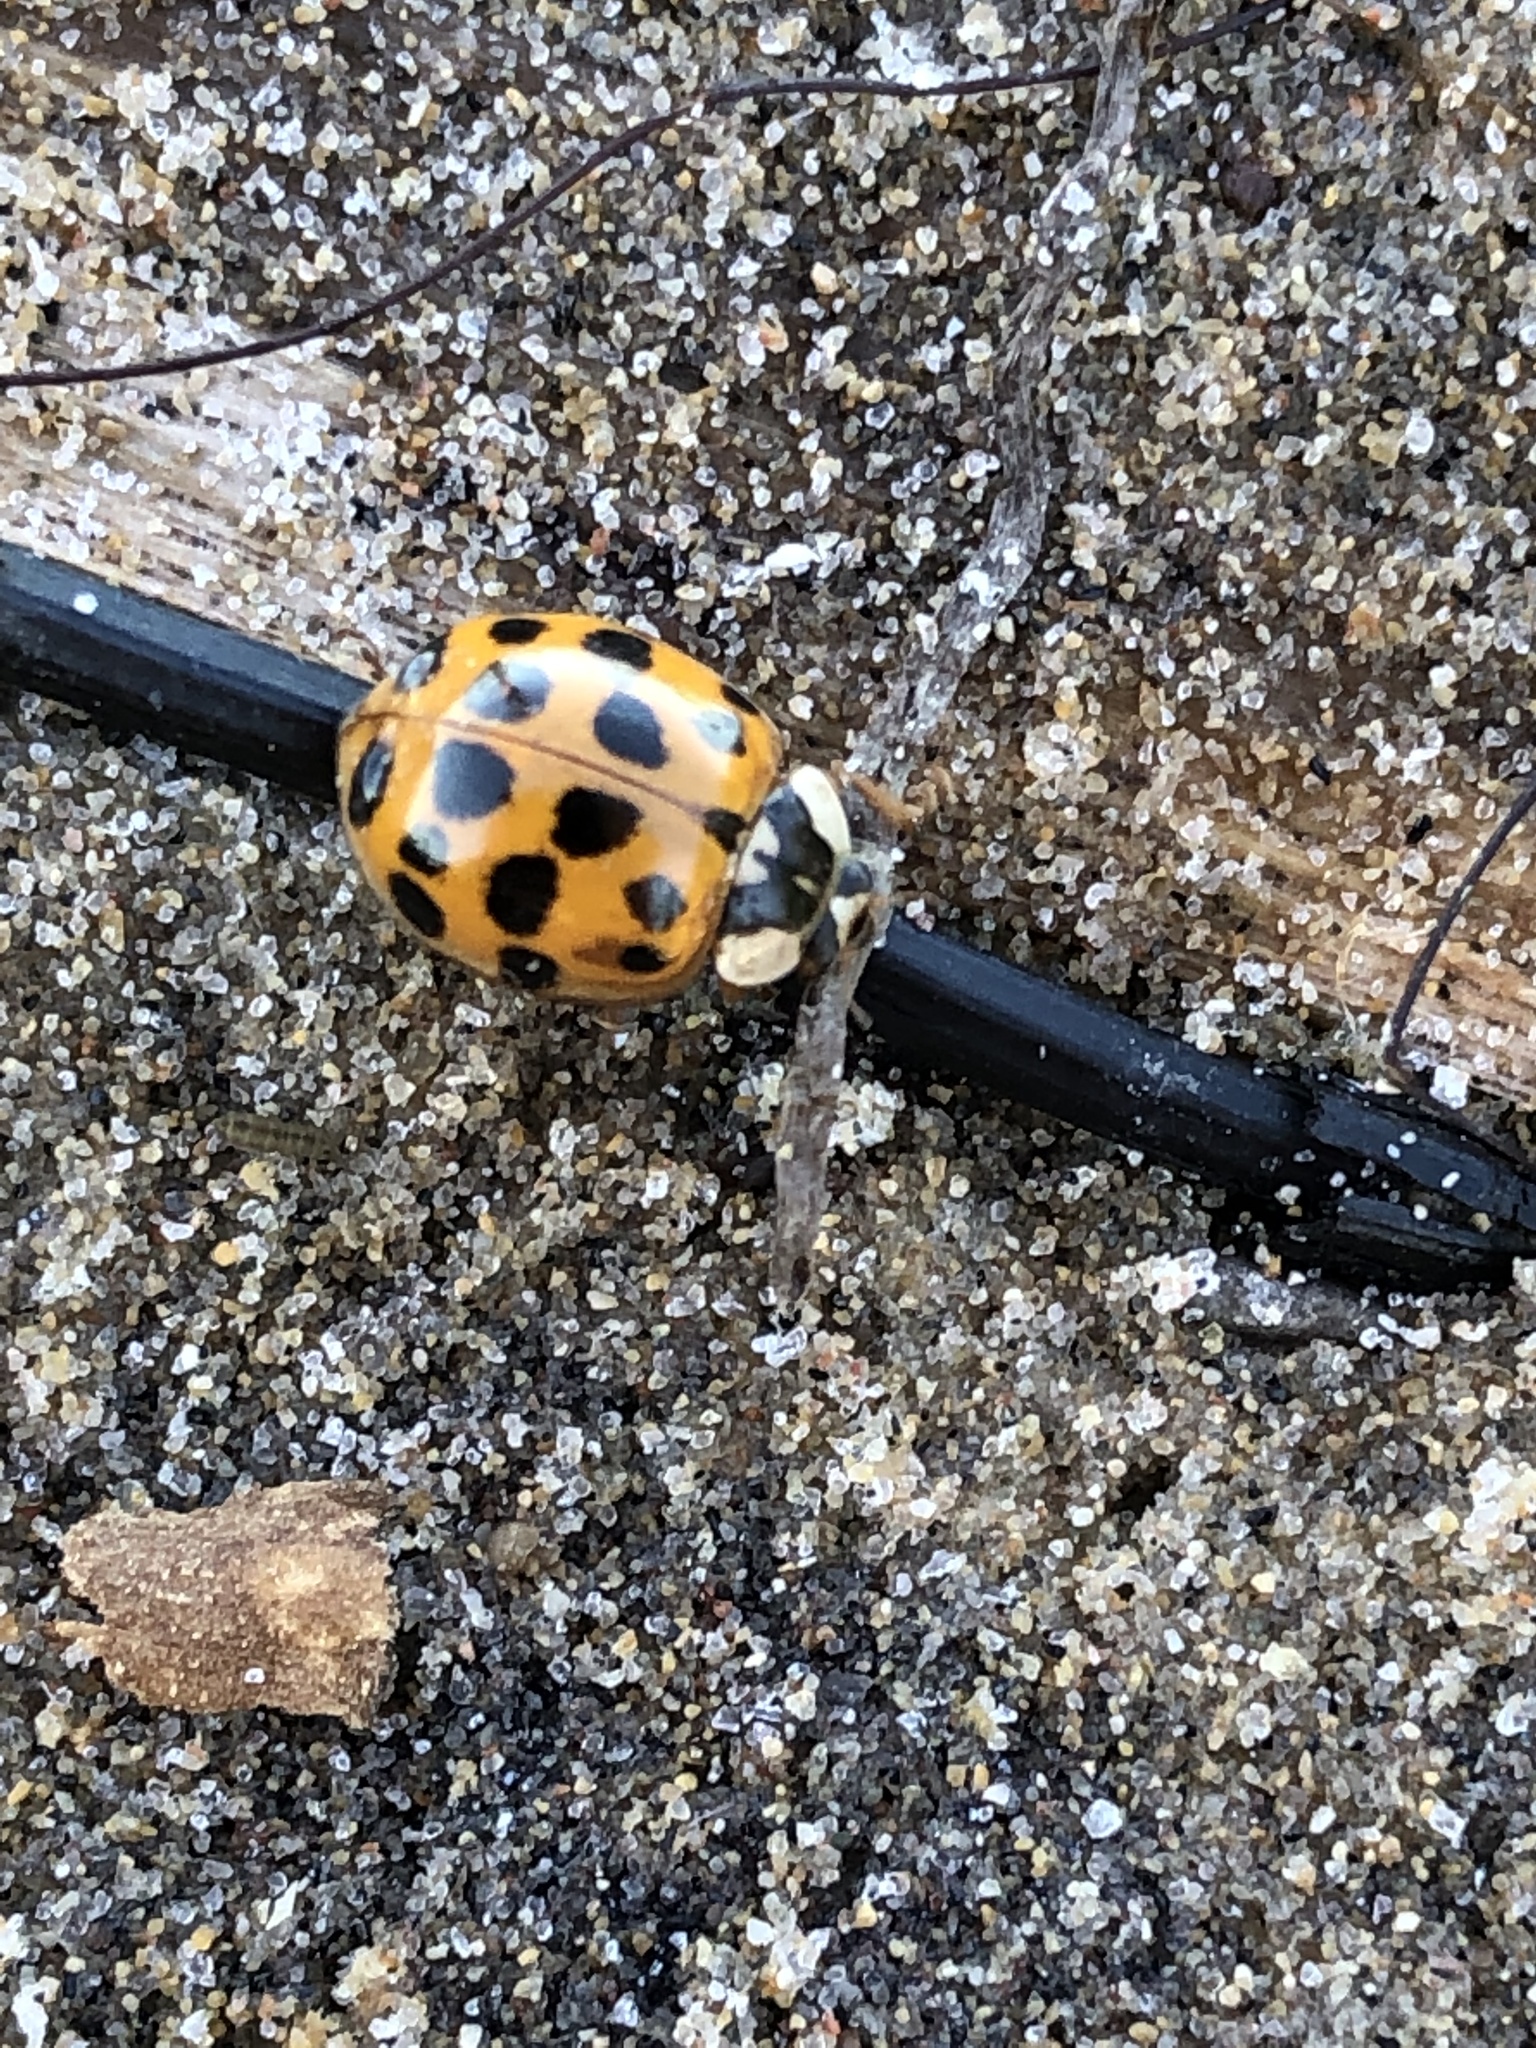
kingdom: Animalia
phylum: Arthropoda
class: Insecta
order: Coleoptera
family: Coccinellidae
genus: Harmonia
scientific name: Harmonia axyridis
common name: Harlequin ladybird
